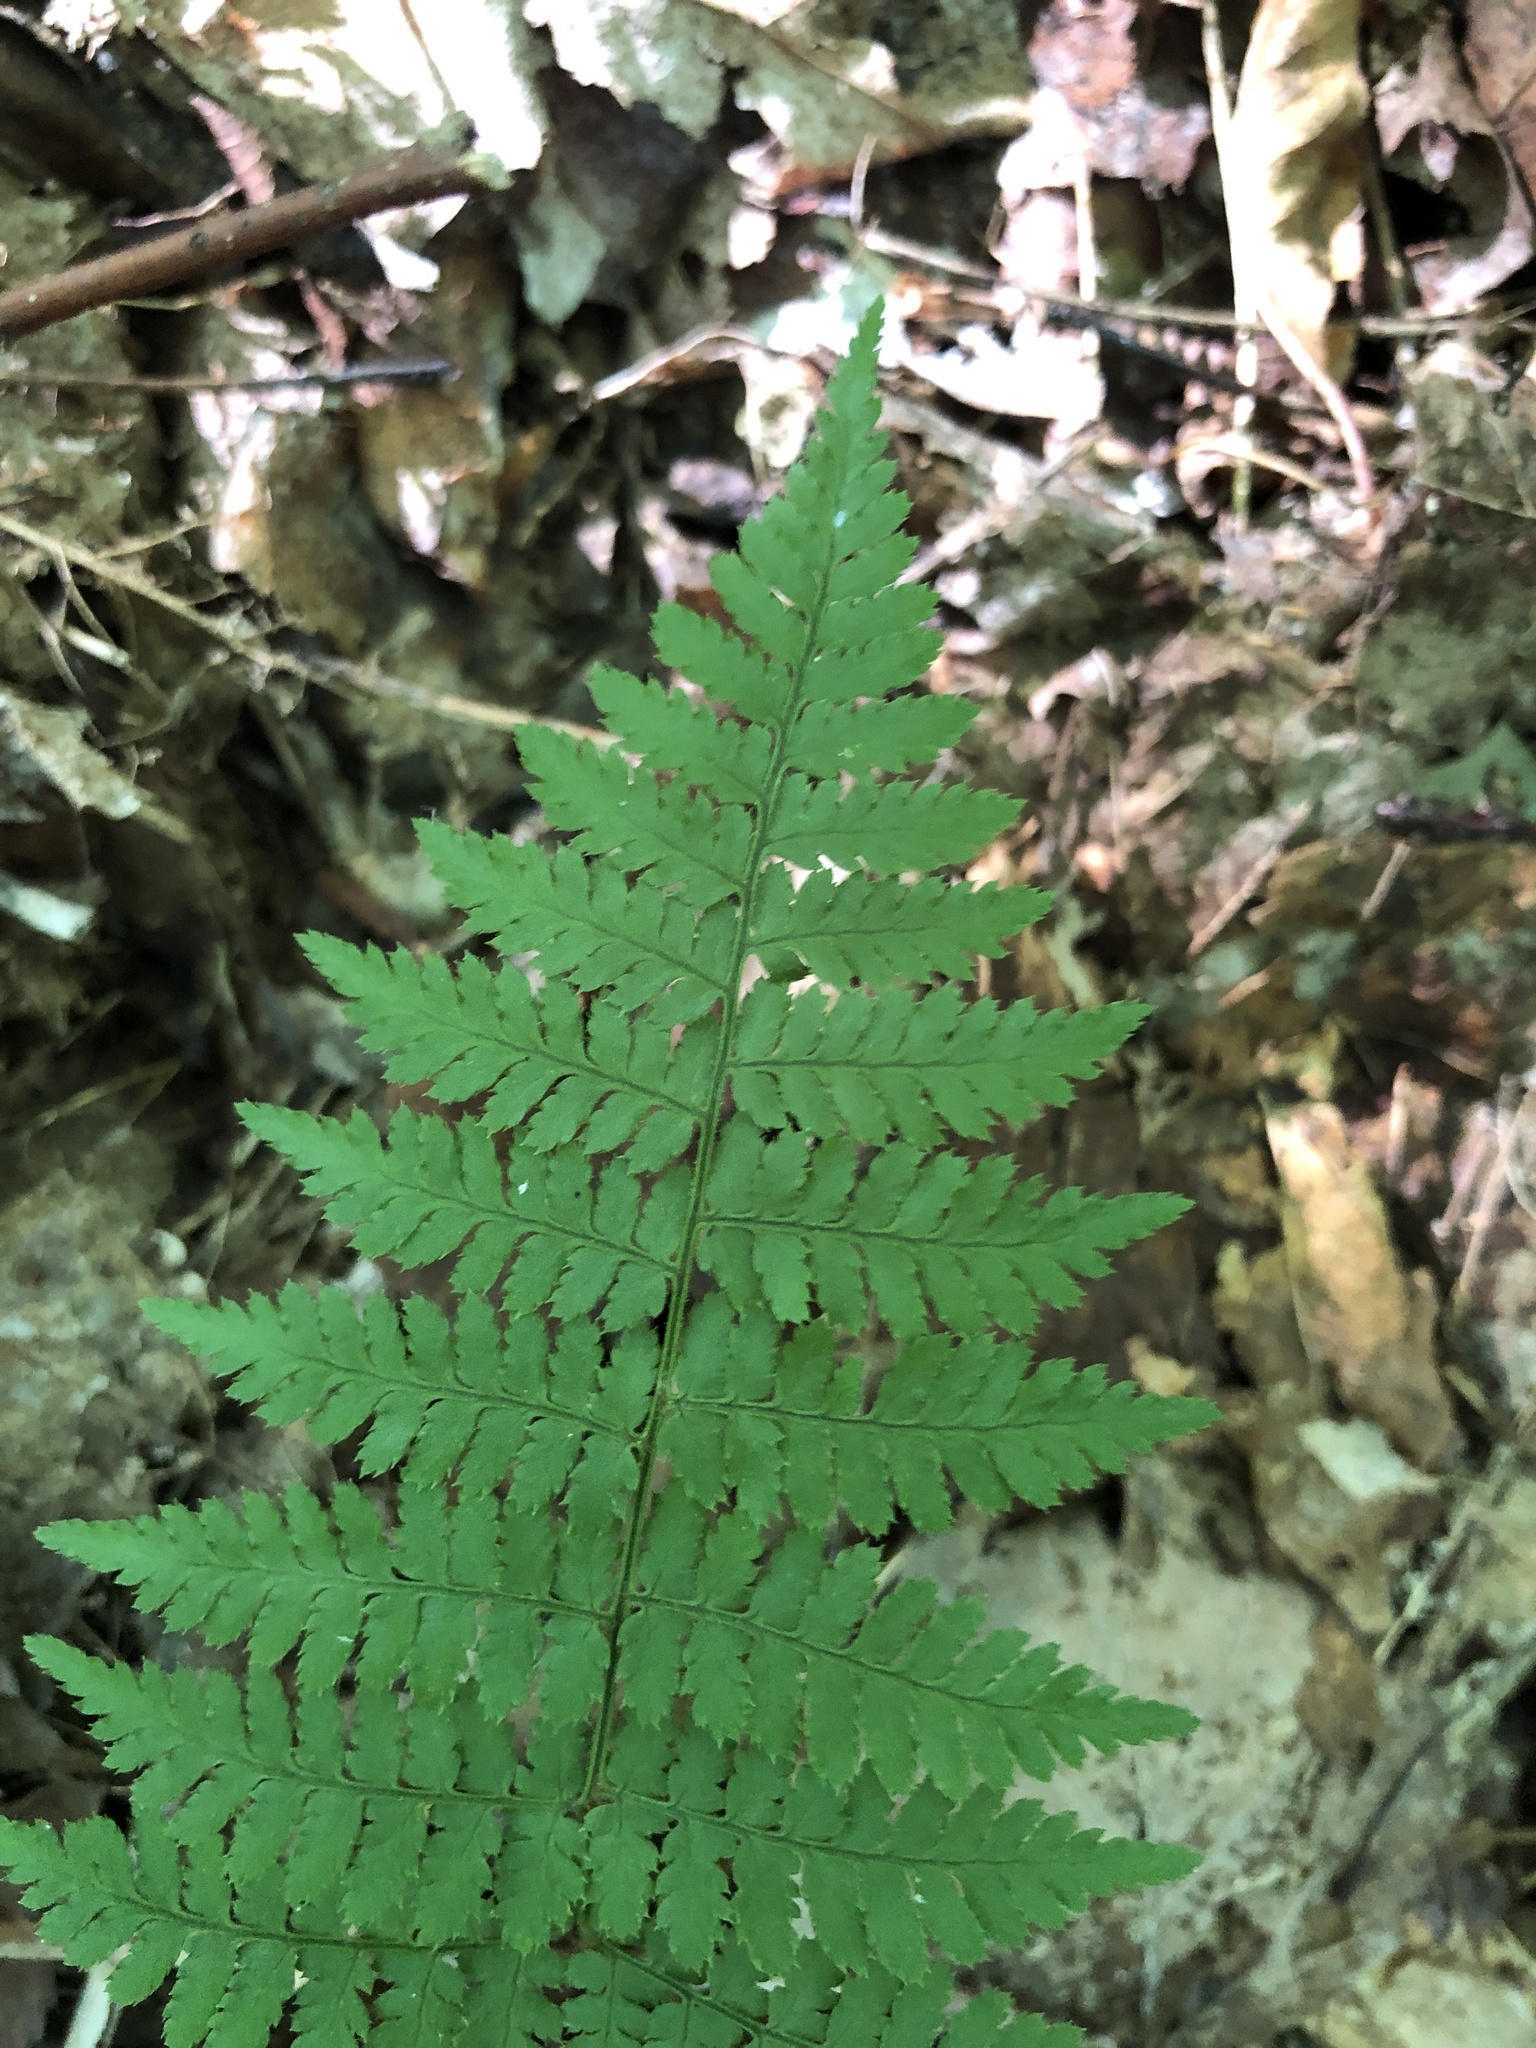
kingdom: Plantae
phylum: Tracheophyta
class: Polypodiopsida
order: Polypodiales
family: Dryopteridaceae
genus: Dryopteris
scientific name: Dryopteris intermedia
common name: Evergreen wood fern
